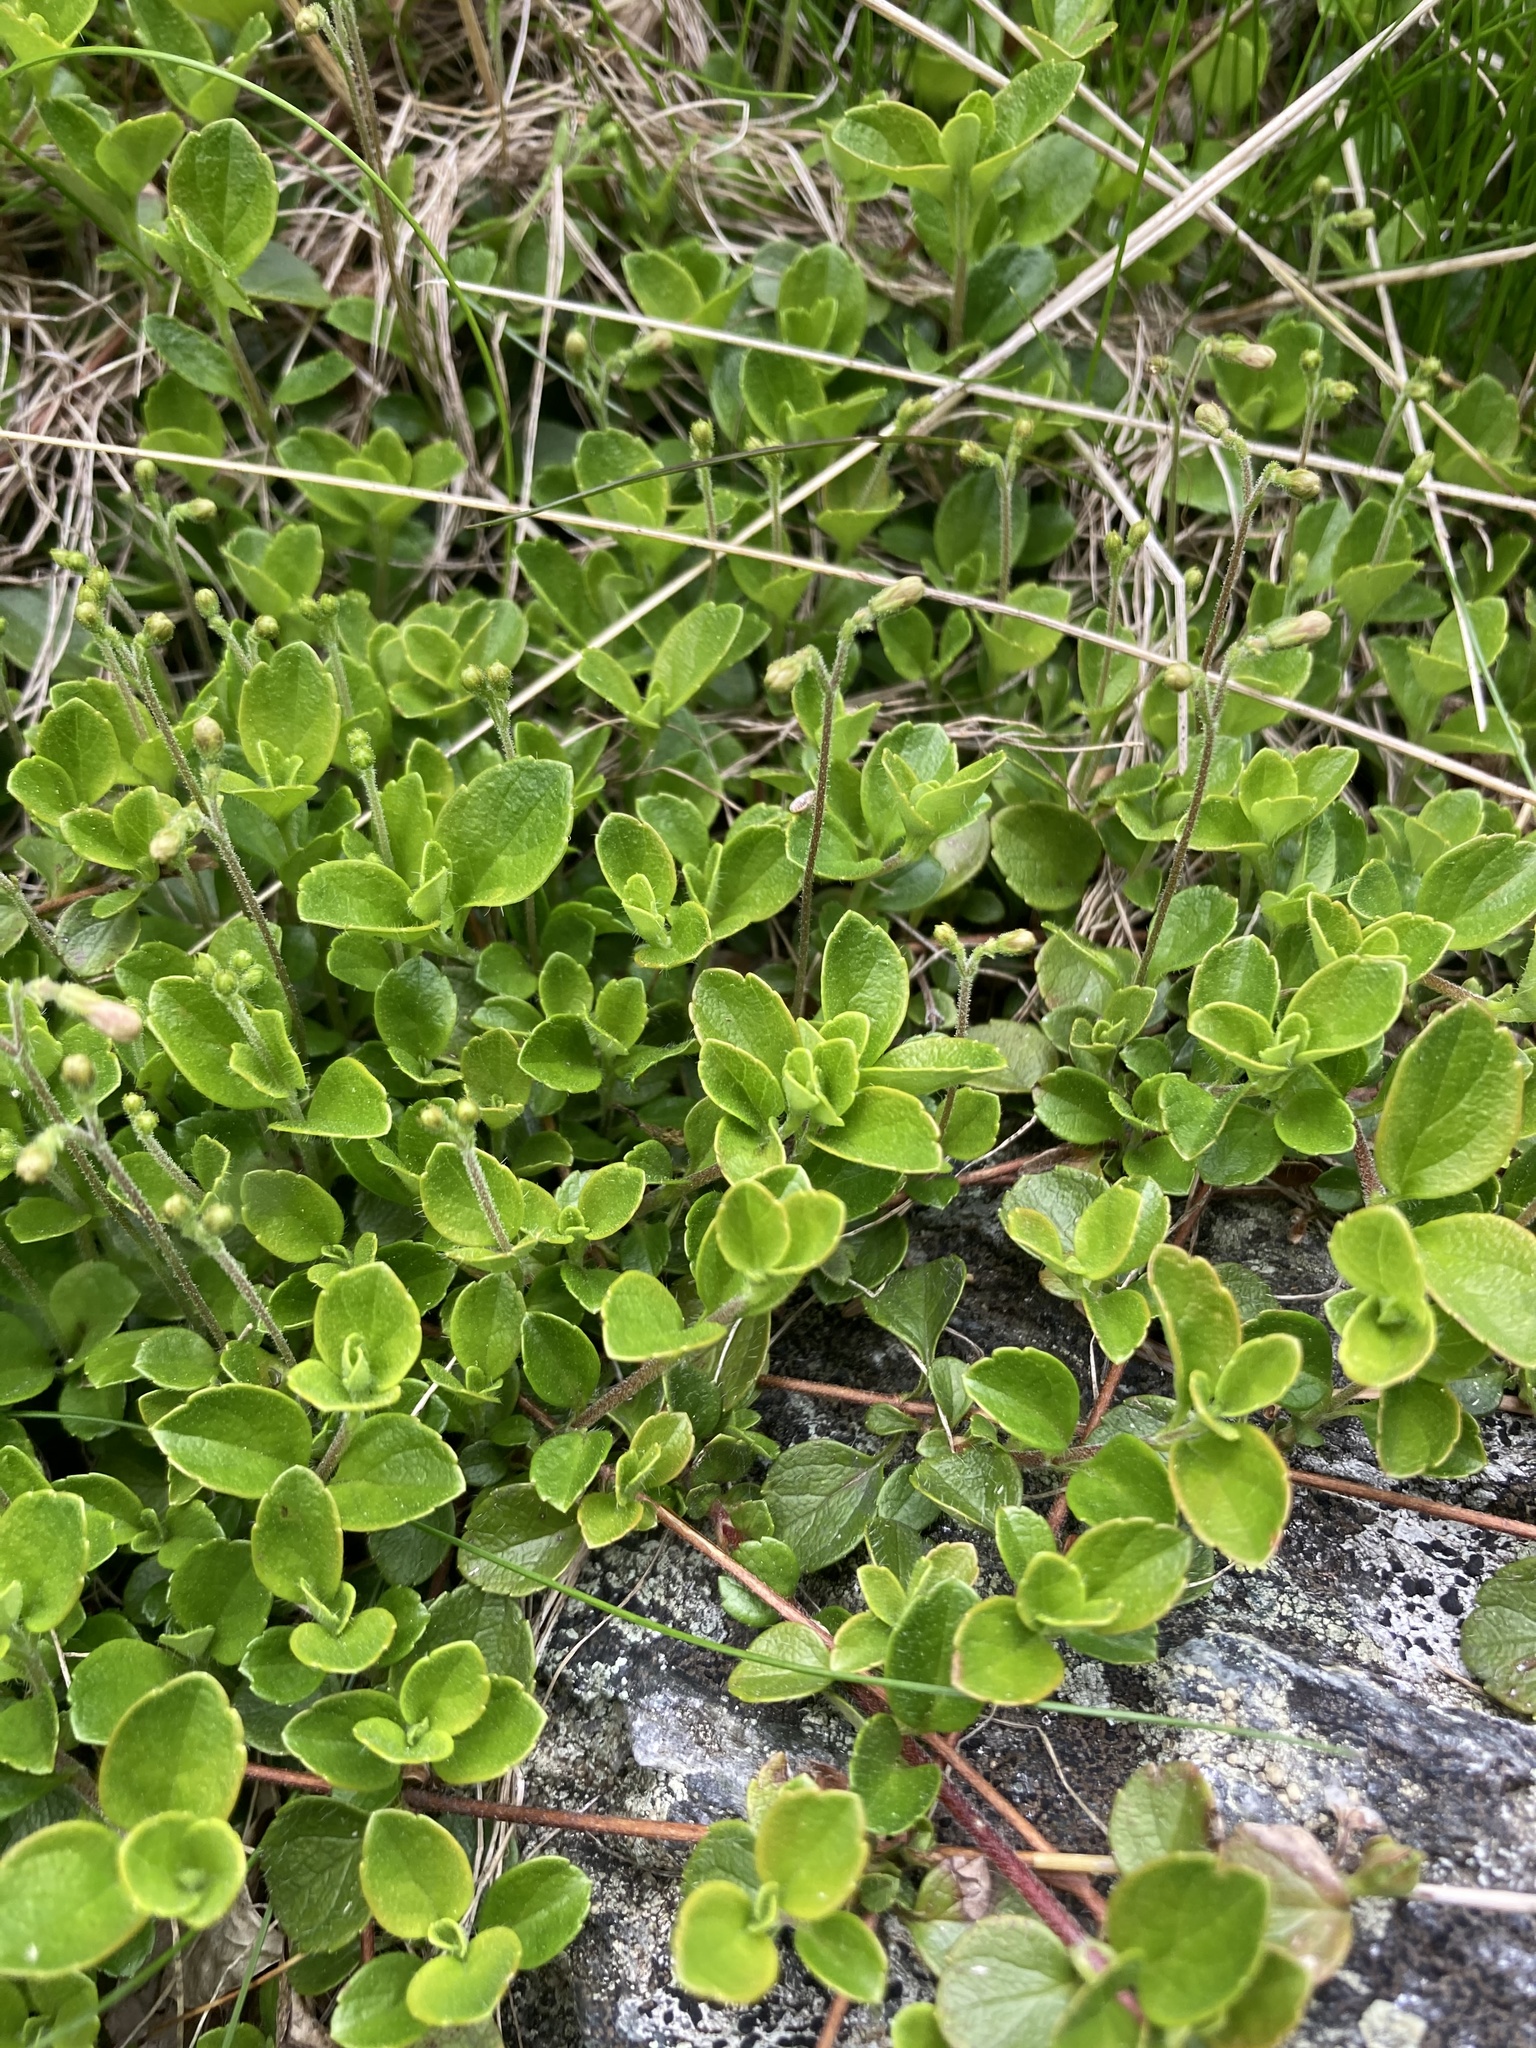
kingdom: Plantae
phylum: Tracheophyta
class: Magnoliopsida
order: Dipsacales
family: Caprifoliaceae
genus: Linnaea
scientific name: Linnaea borealis
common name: Twinflower
